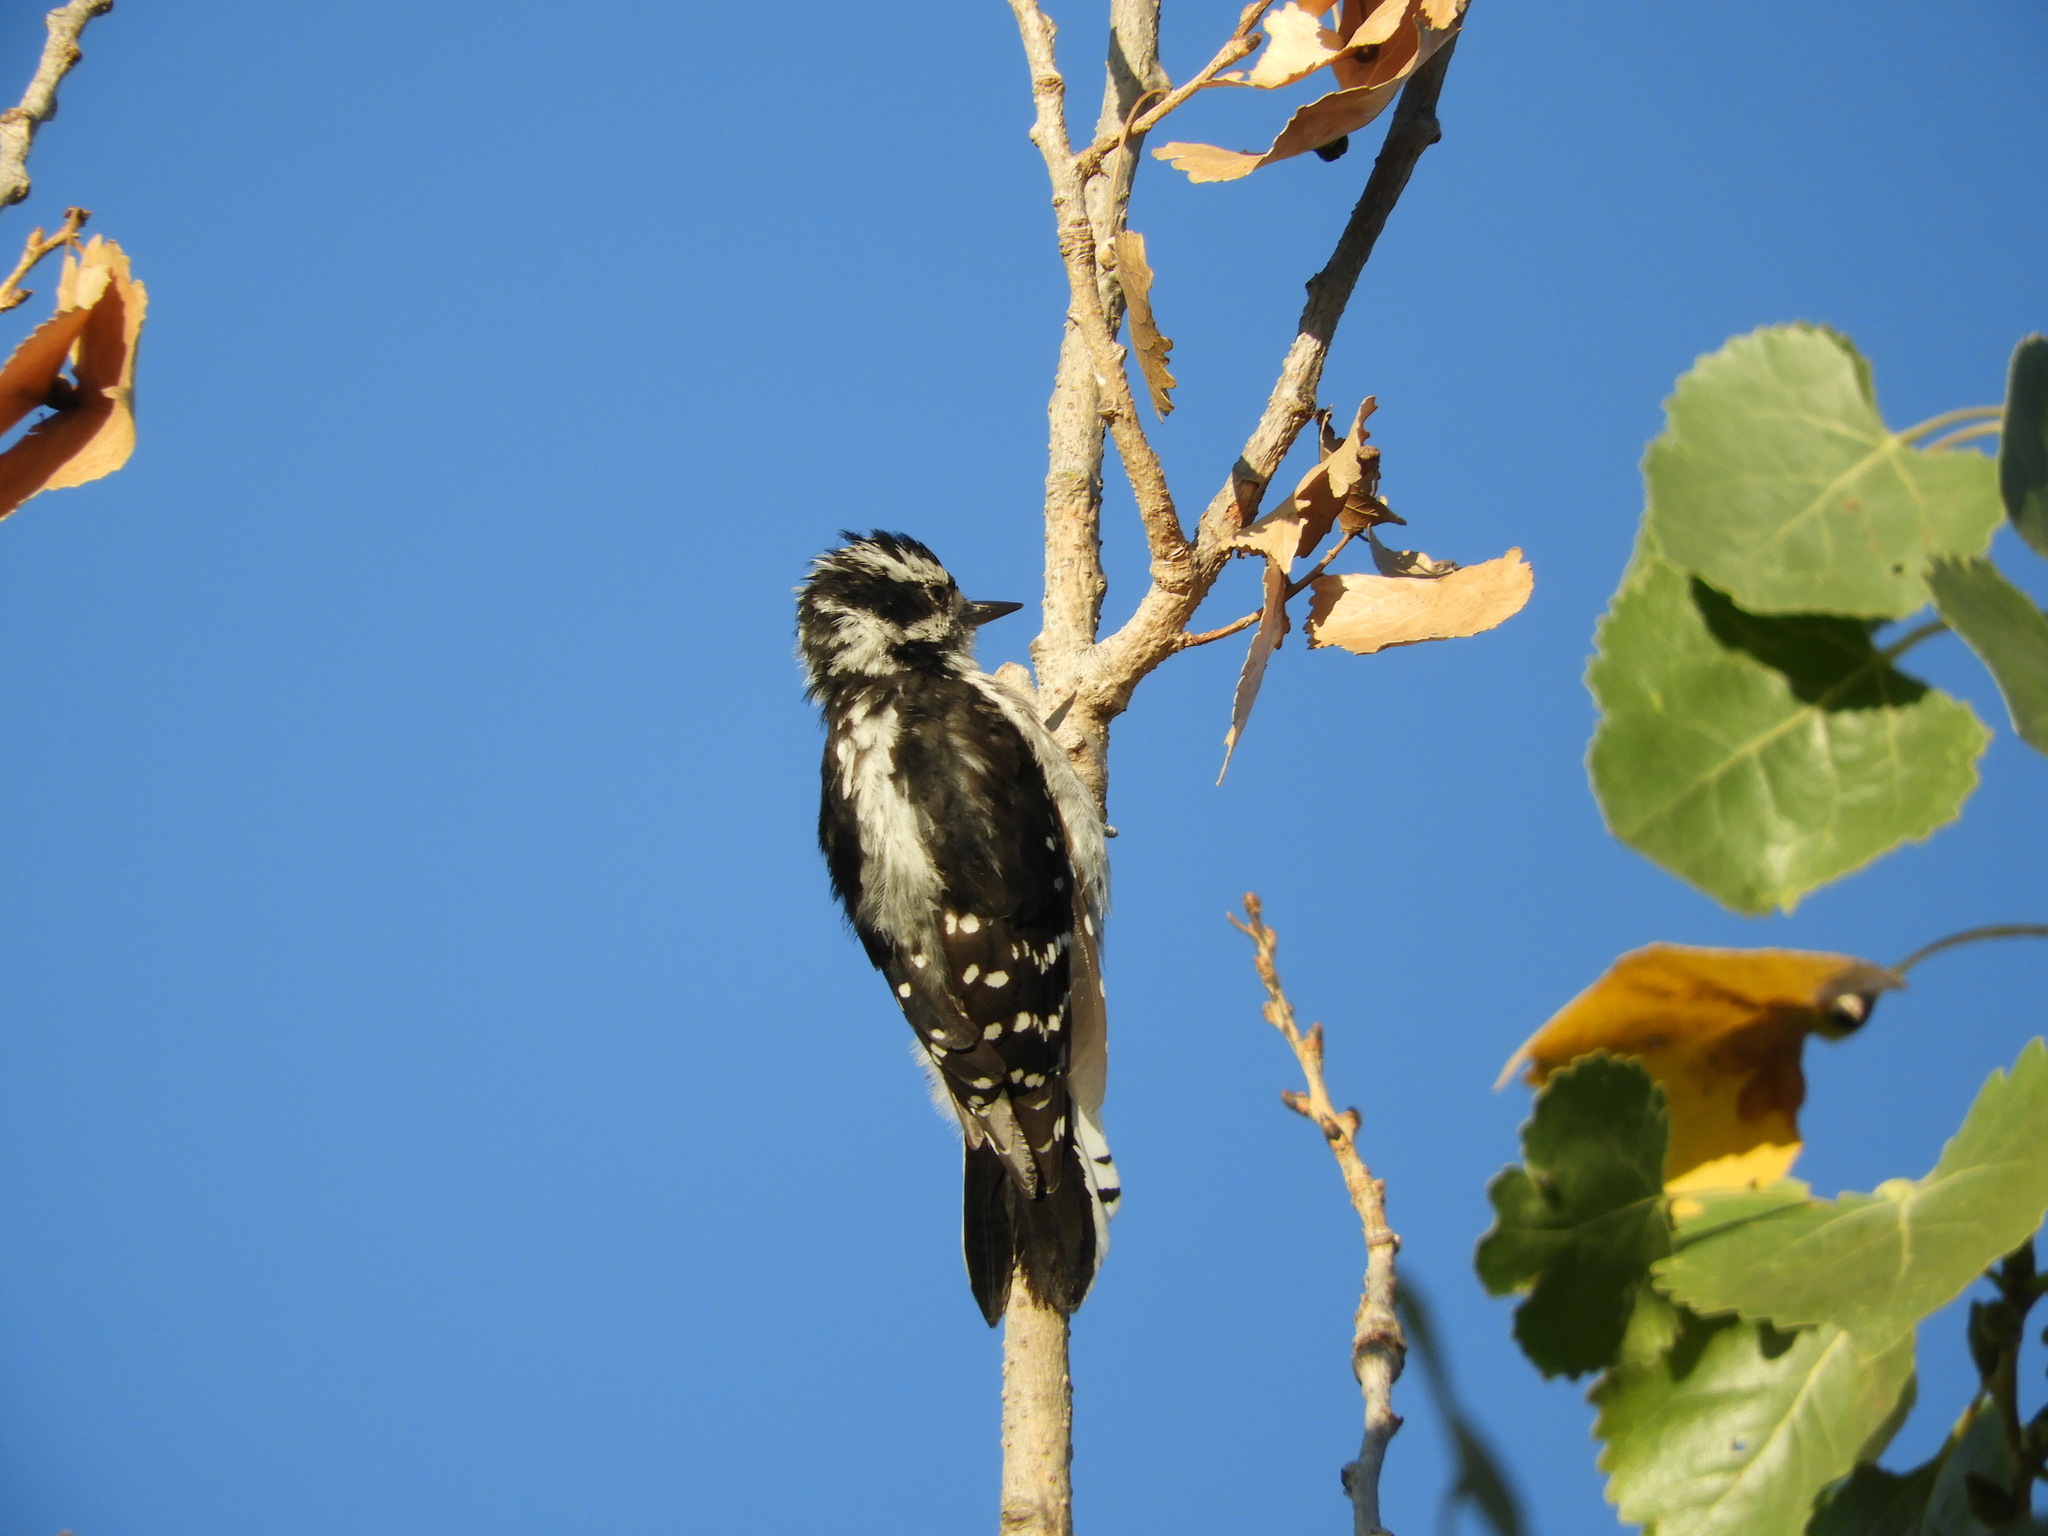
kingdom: Animalia
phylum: Chordata
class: Aves
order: Piciformes
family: Picidae
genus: Dryobates
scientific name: Dryobates pubescens
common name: Downy woodpecker
